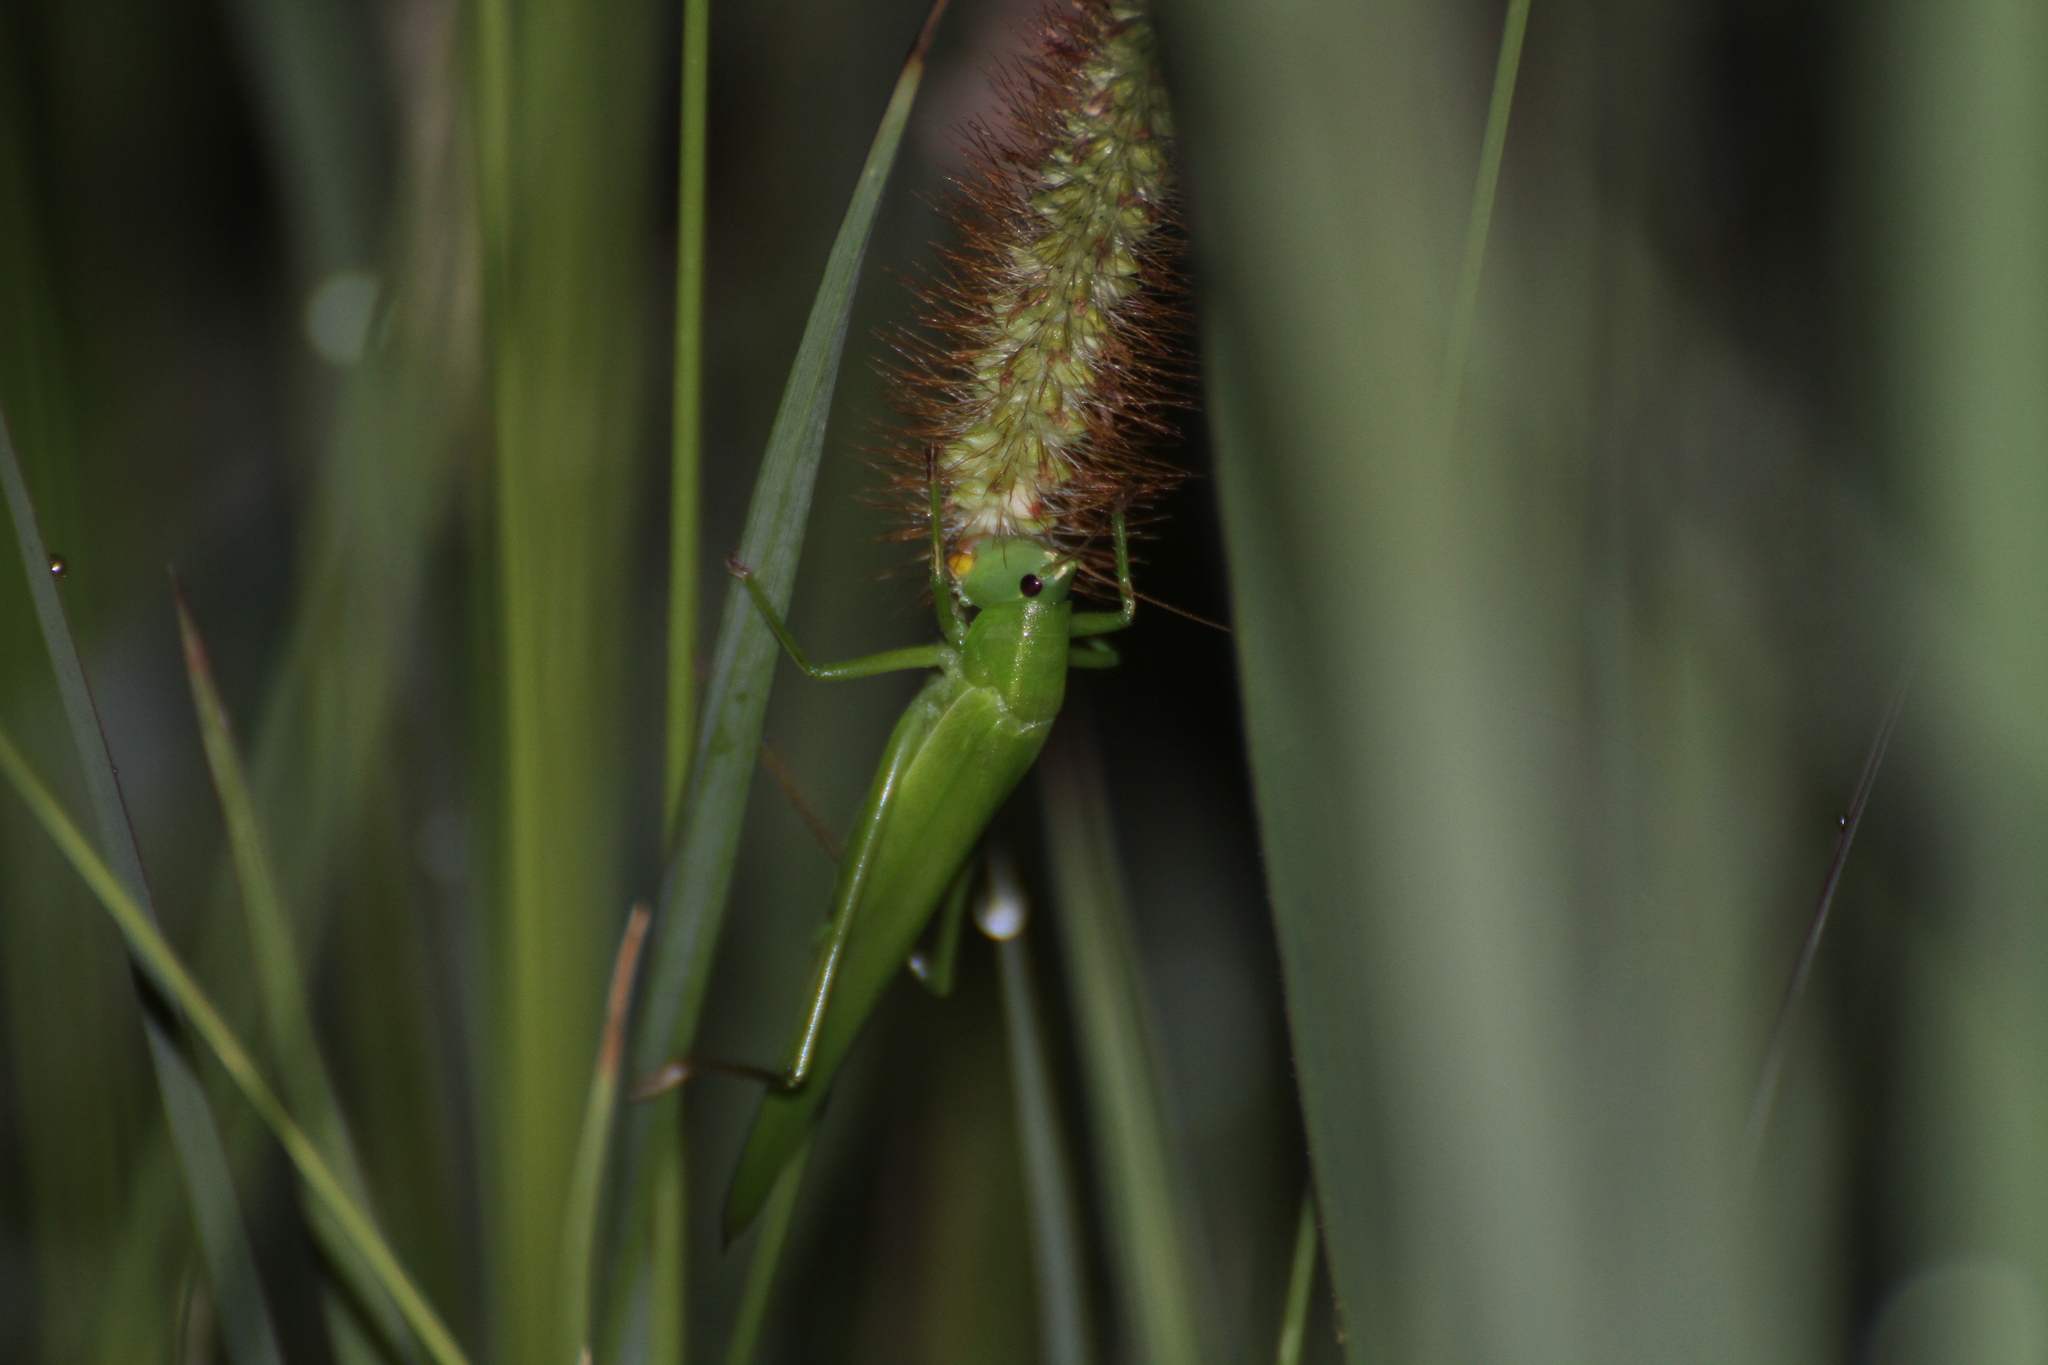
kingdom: Animalia
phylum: Arthropoda
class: Insecta
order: Orthoptera
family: Tettigoniidae
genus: Ruspolia
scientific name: Ruspolia nitidula
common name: Large conehead
